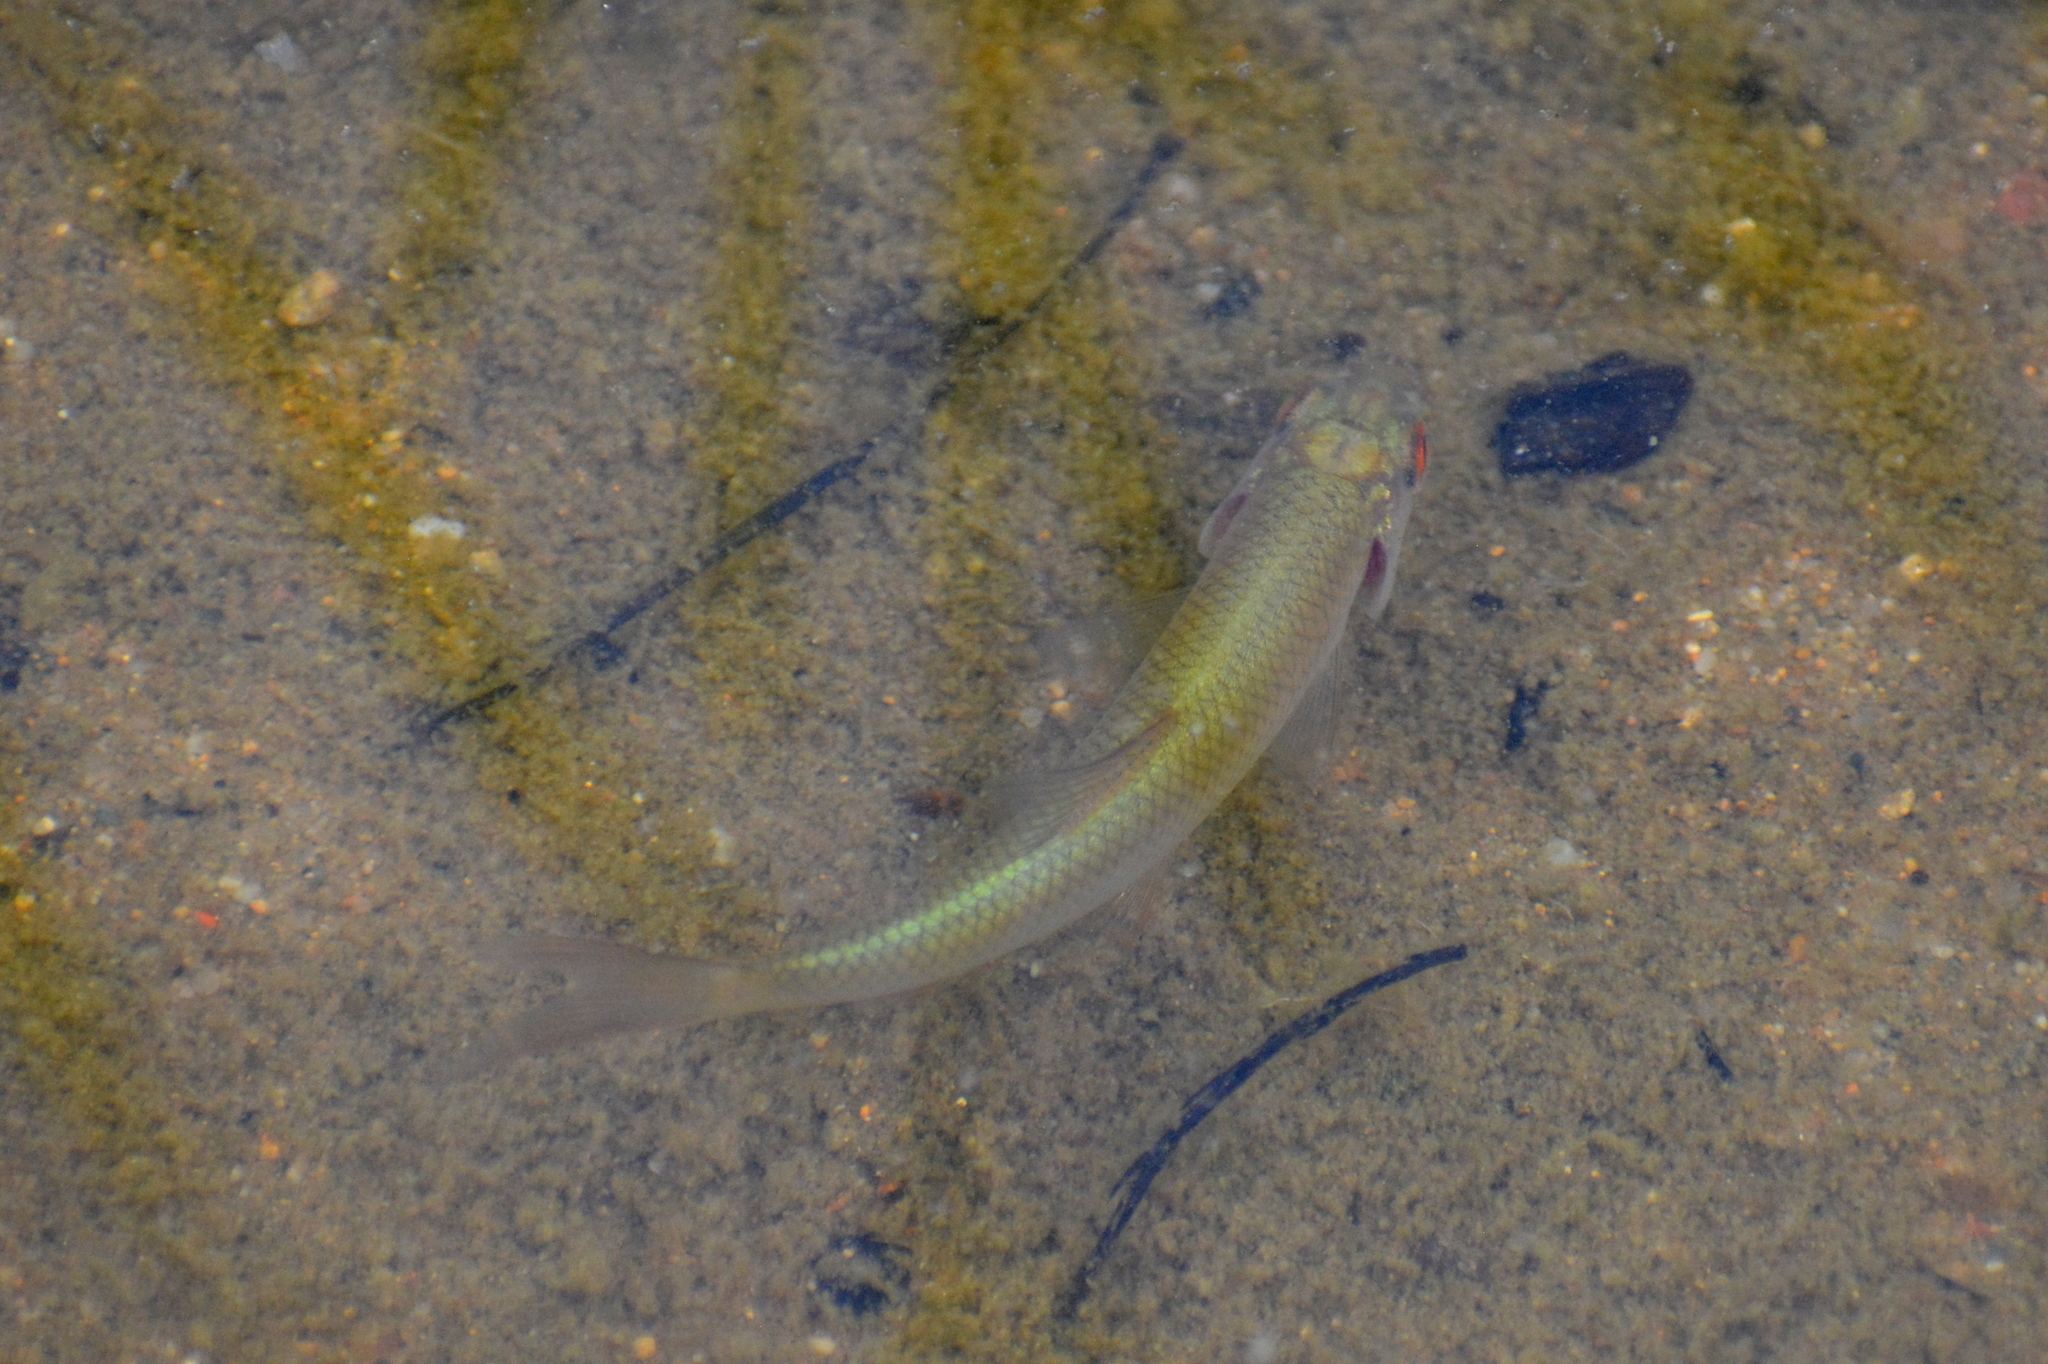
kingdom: Animalia
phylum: Chordata
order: Cypriniformes
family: Cyprinidae
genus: Rutilus
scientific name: Rutilus rutilus
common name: Roach
